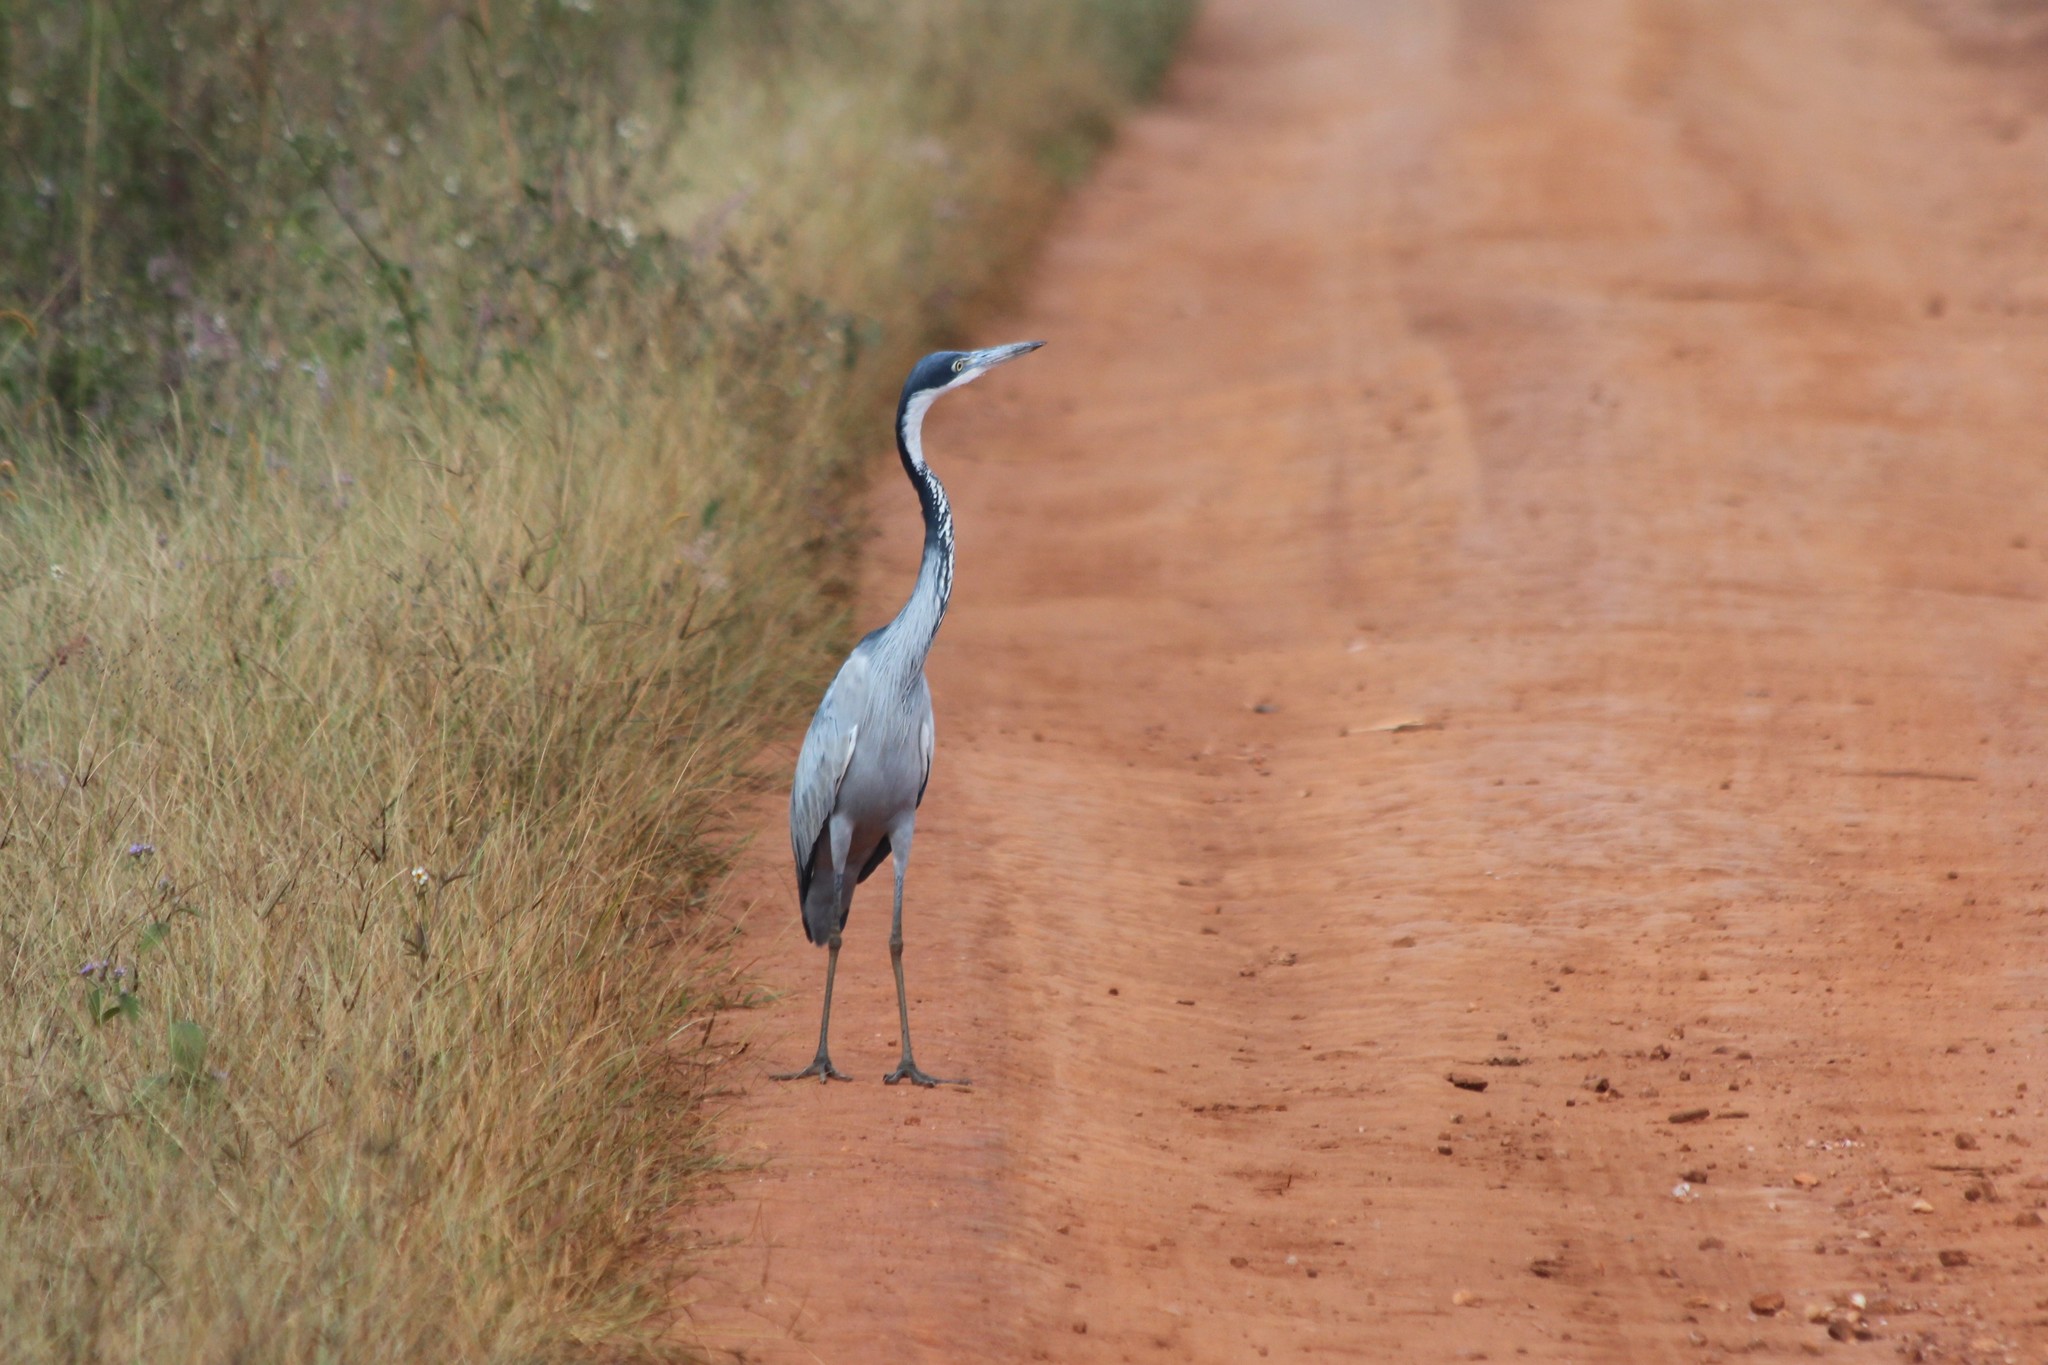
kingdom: Animalia
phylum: Chordata
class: Aves
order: Pelecaniformes
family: Ardeidae
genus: Ardea
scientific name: Ardea melanocephala
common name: Black-headed heron
